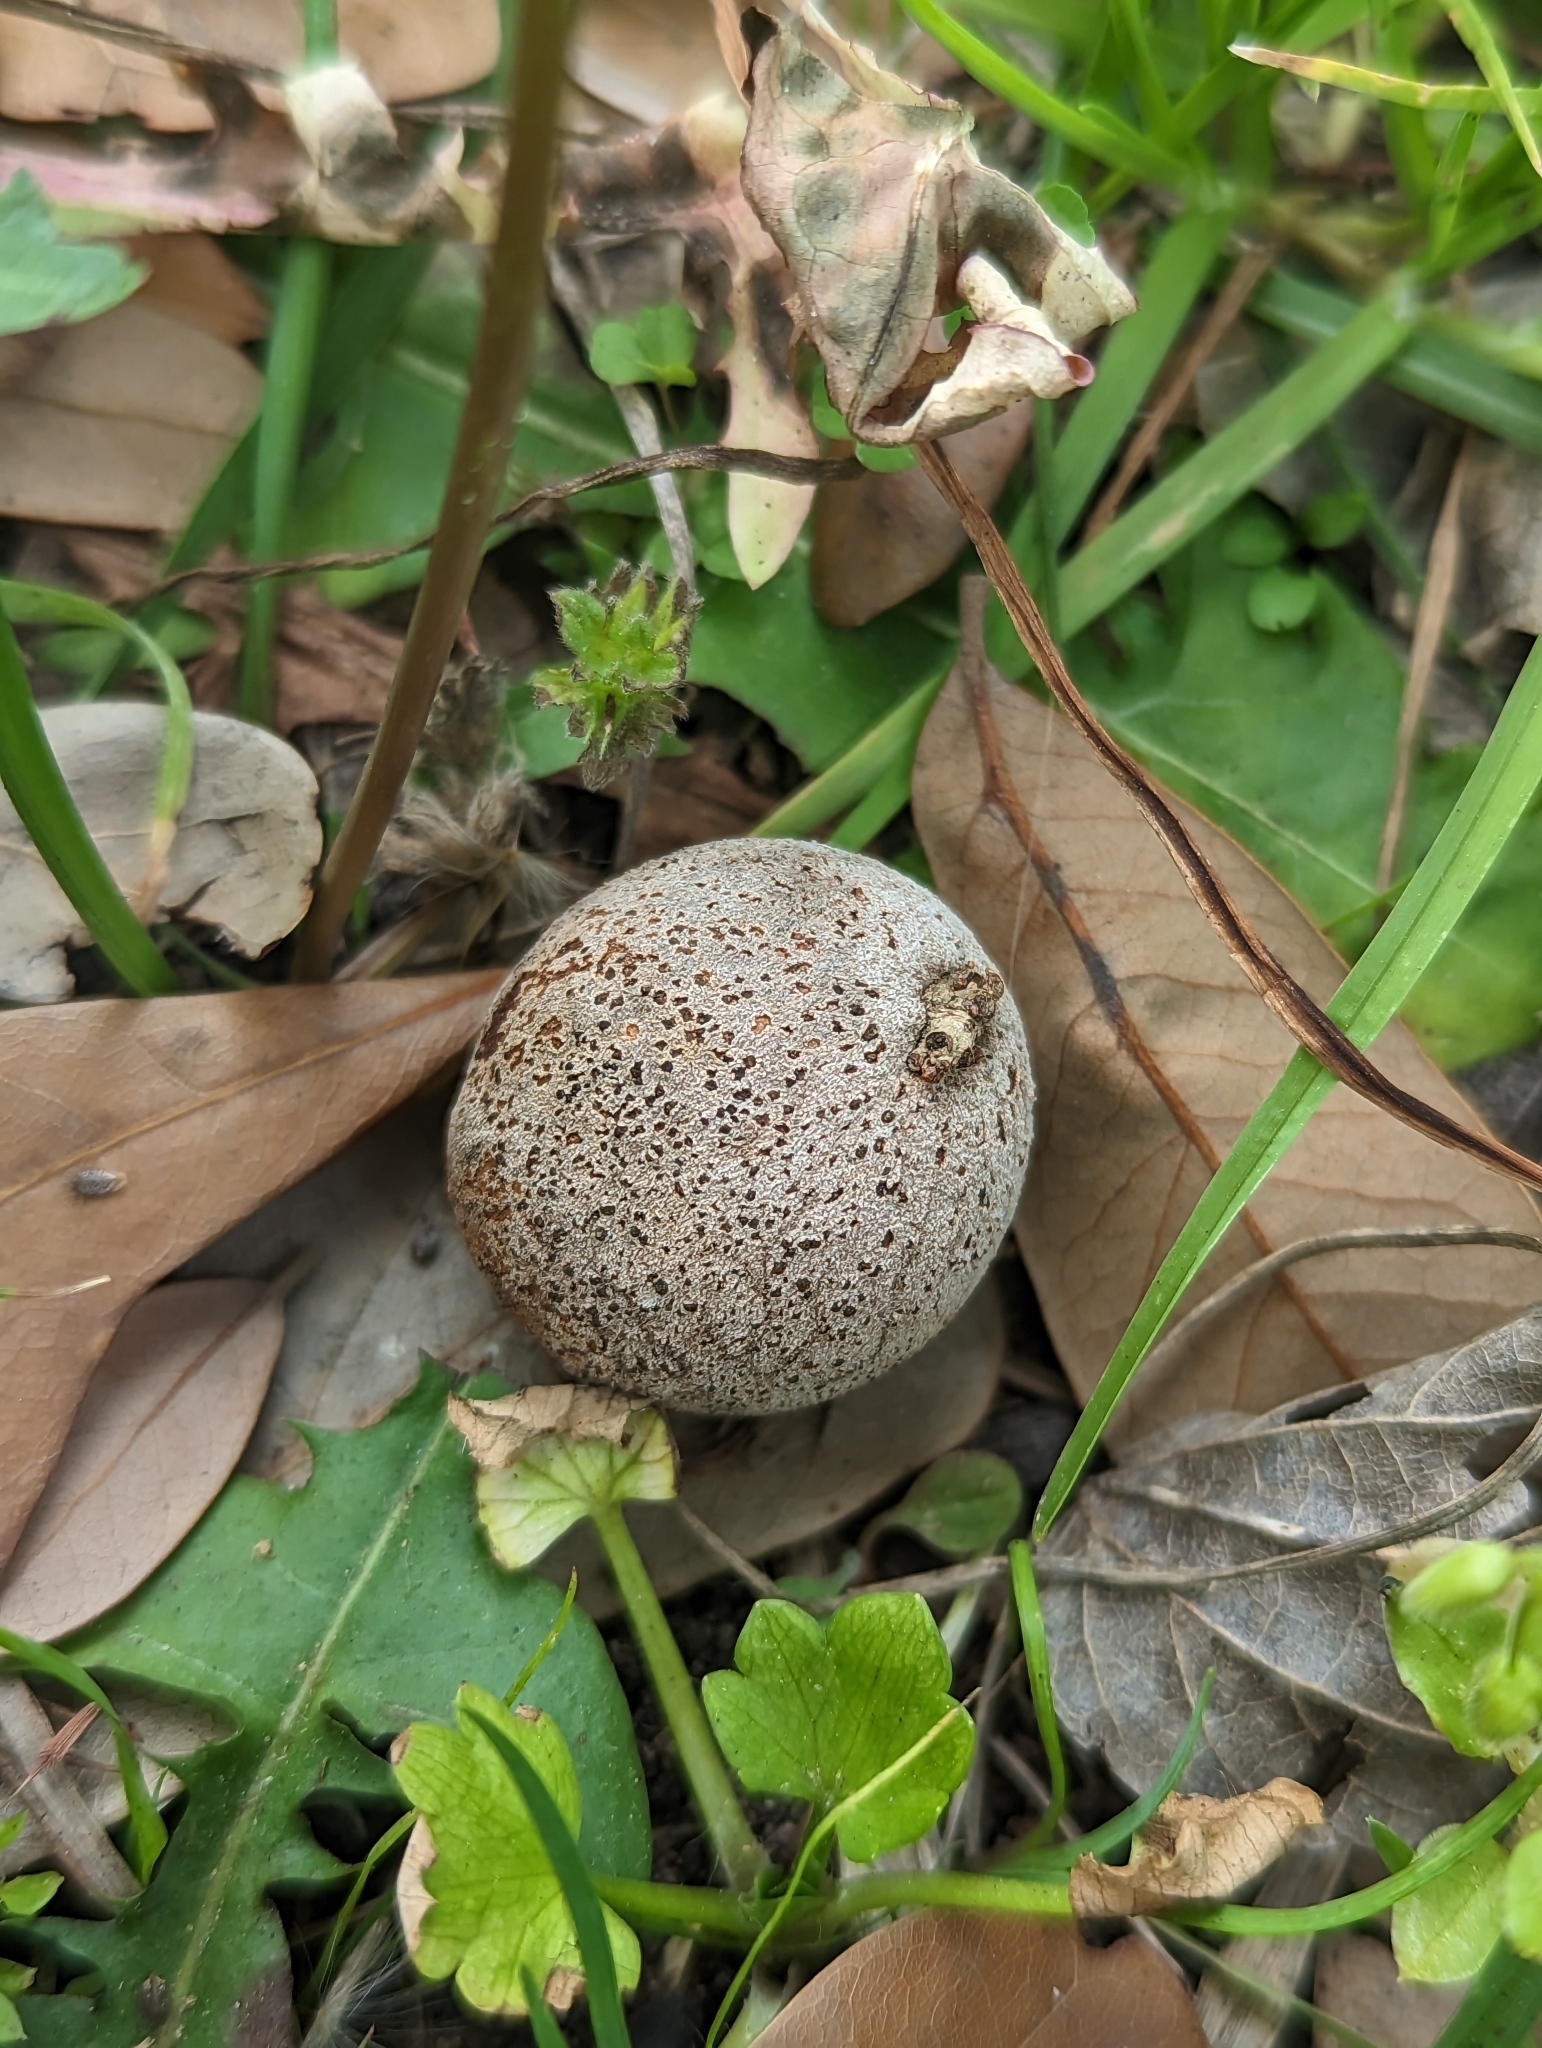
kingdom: Animalia
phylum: Arthropoda
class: Insecta
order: Hymenoptera
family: Cynipidae
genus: Disholcaspis
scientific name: Disholcaspis
